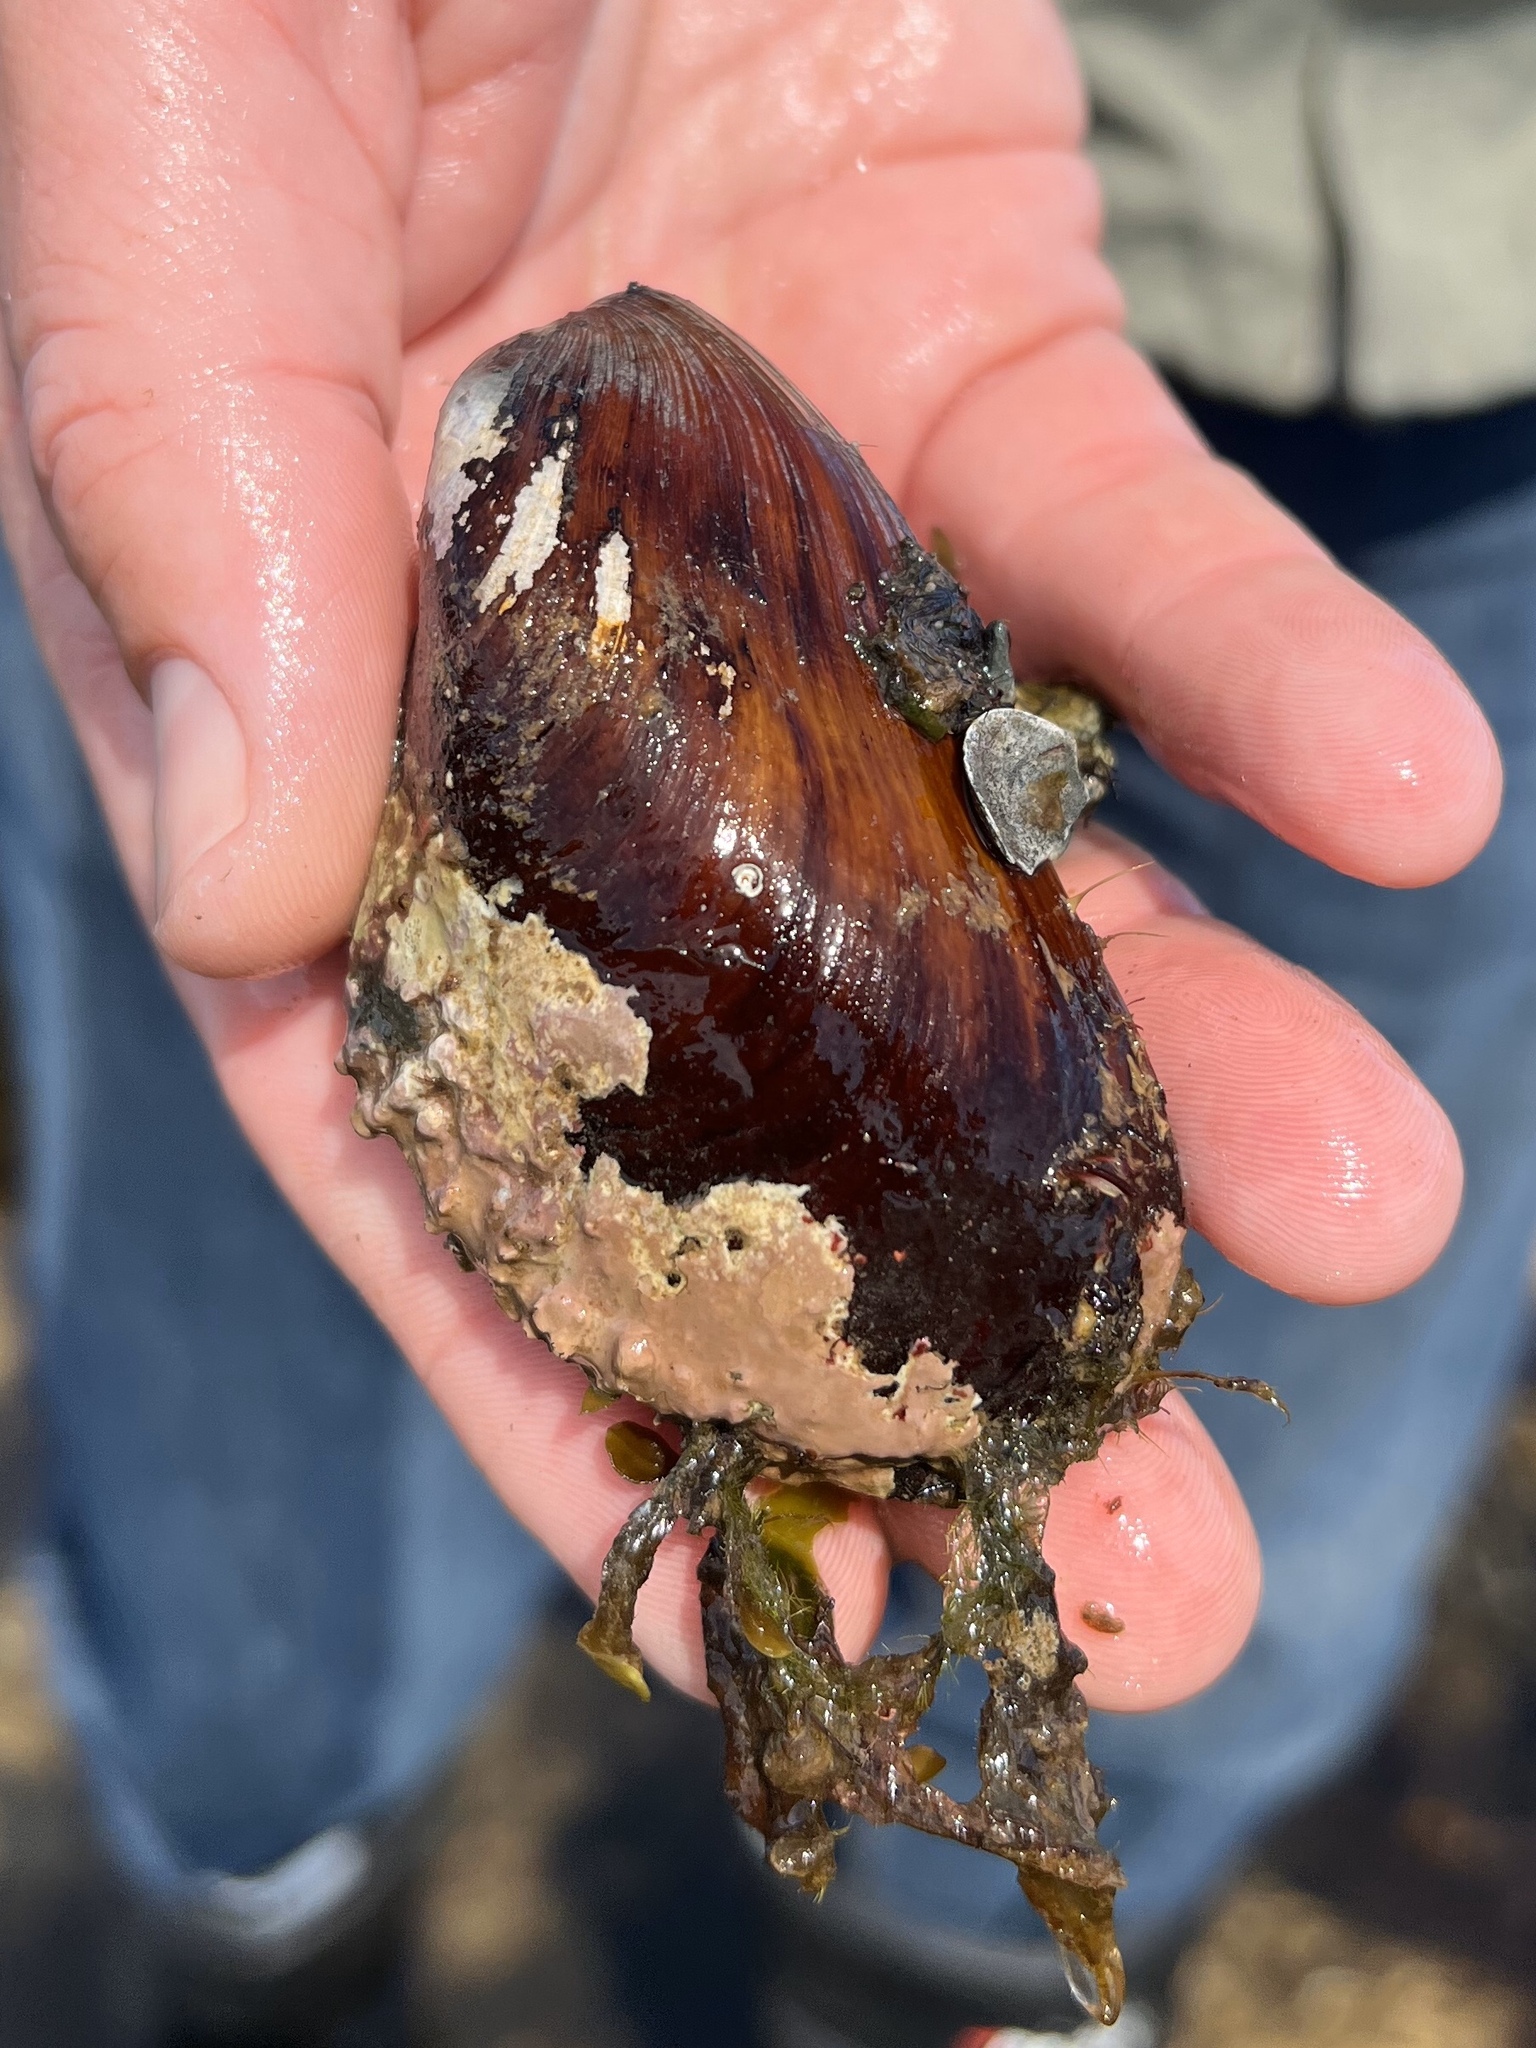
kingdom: Animalia
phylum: Mollusca
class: Bivalvia
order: Mytilida
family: Mytilidae
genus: Modiolus
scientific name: Modiolus modiolus
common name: Horse-mussel
